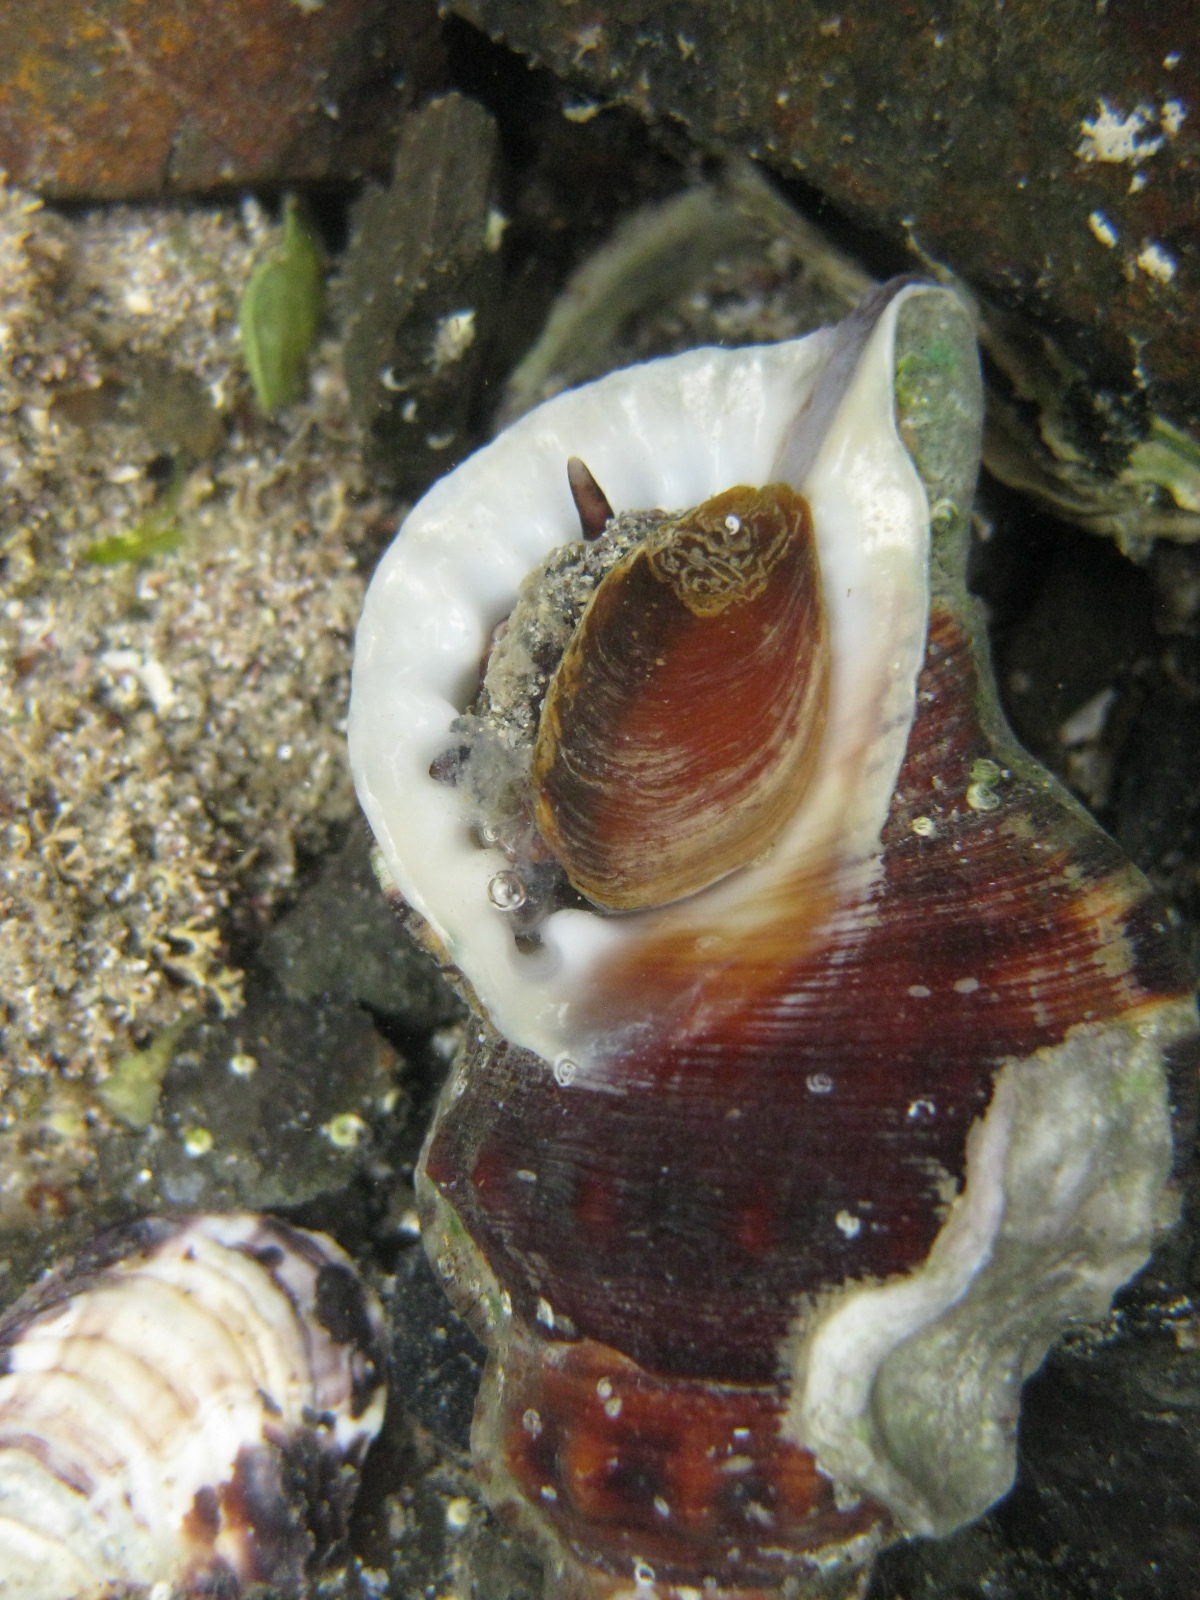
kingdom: Animalia
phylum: Mollusca
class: Gastropoda
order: Littorinimorpha
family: Ranellidae
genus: Ranella
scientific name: Ranella australasia
